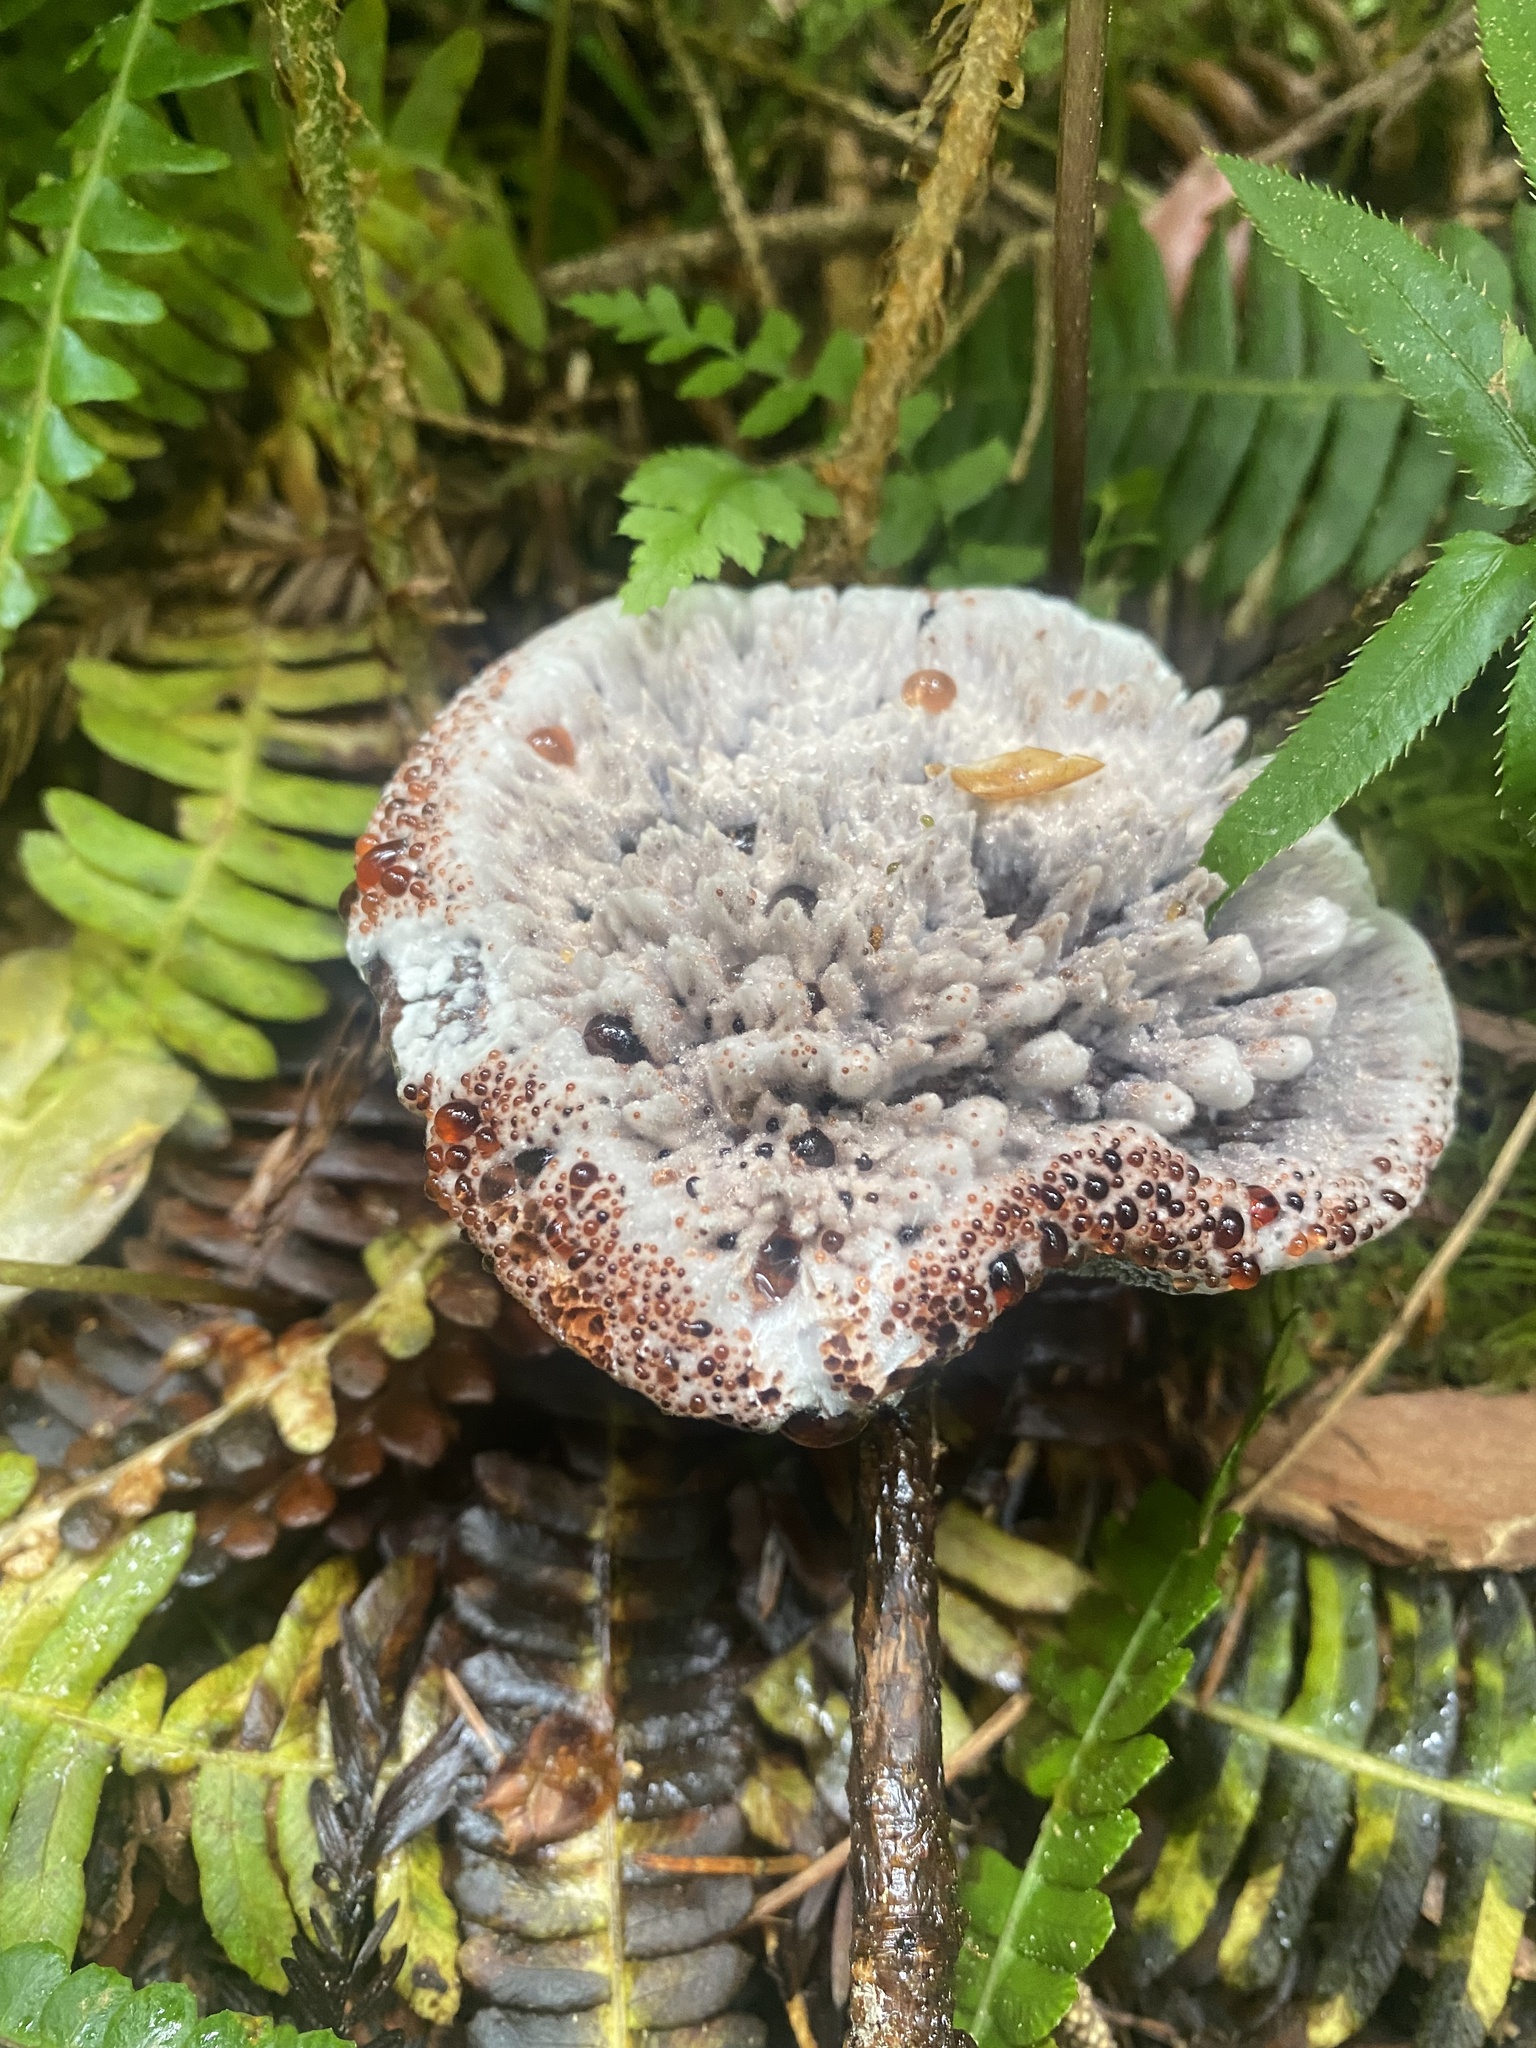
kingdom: Fungi
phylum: Basidiomycota
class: Agaricomycetes
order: Thelephorales
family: Bankeraceae
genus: Hydnellum
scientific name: Hydnellum cyanopodium
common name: Bleeding blue tooth
